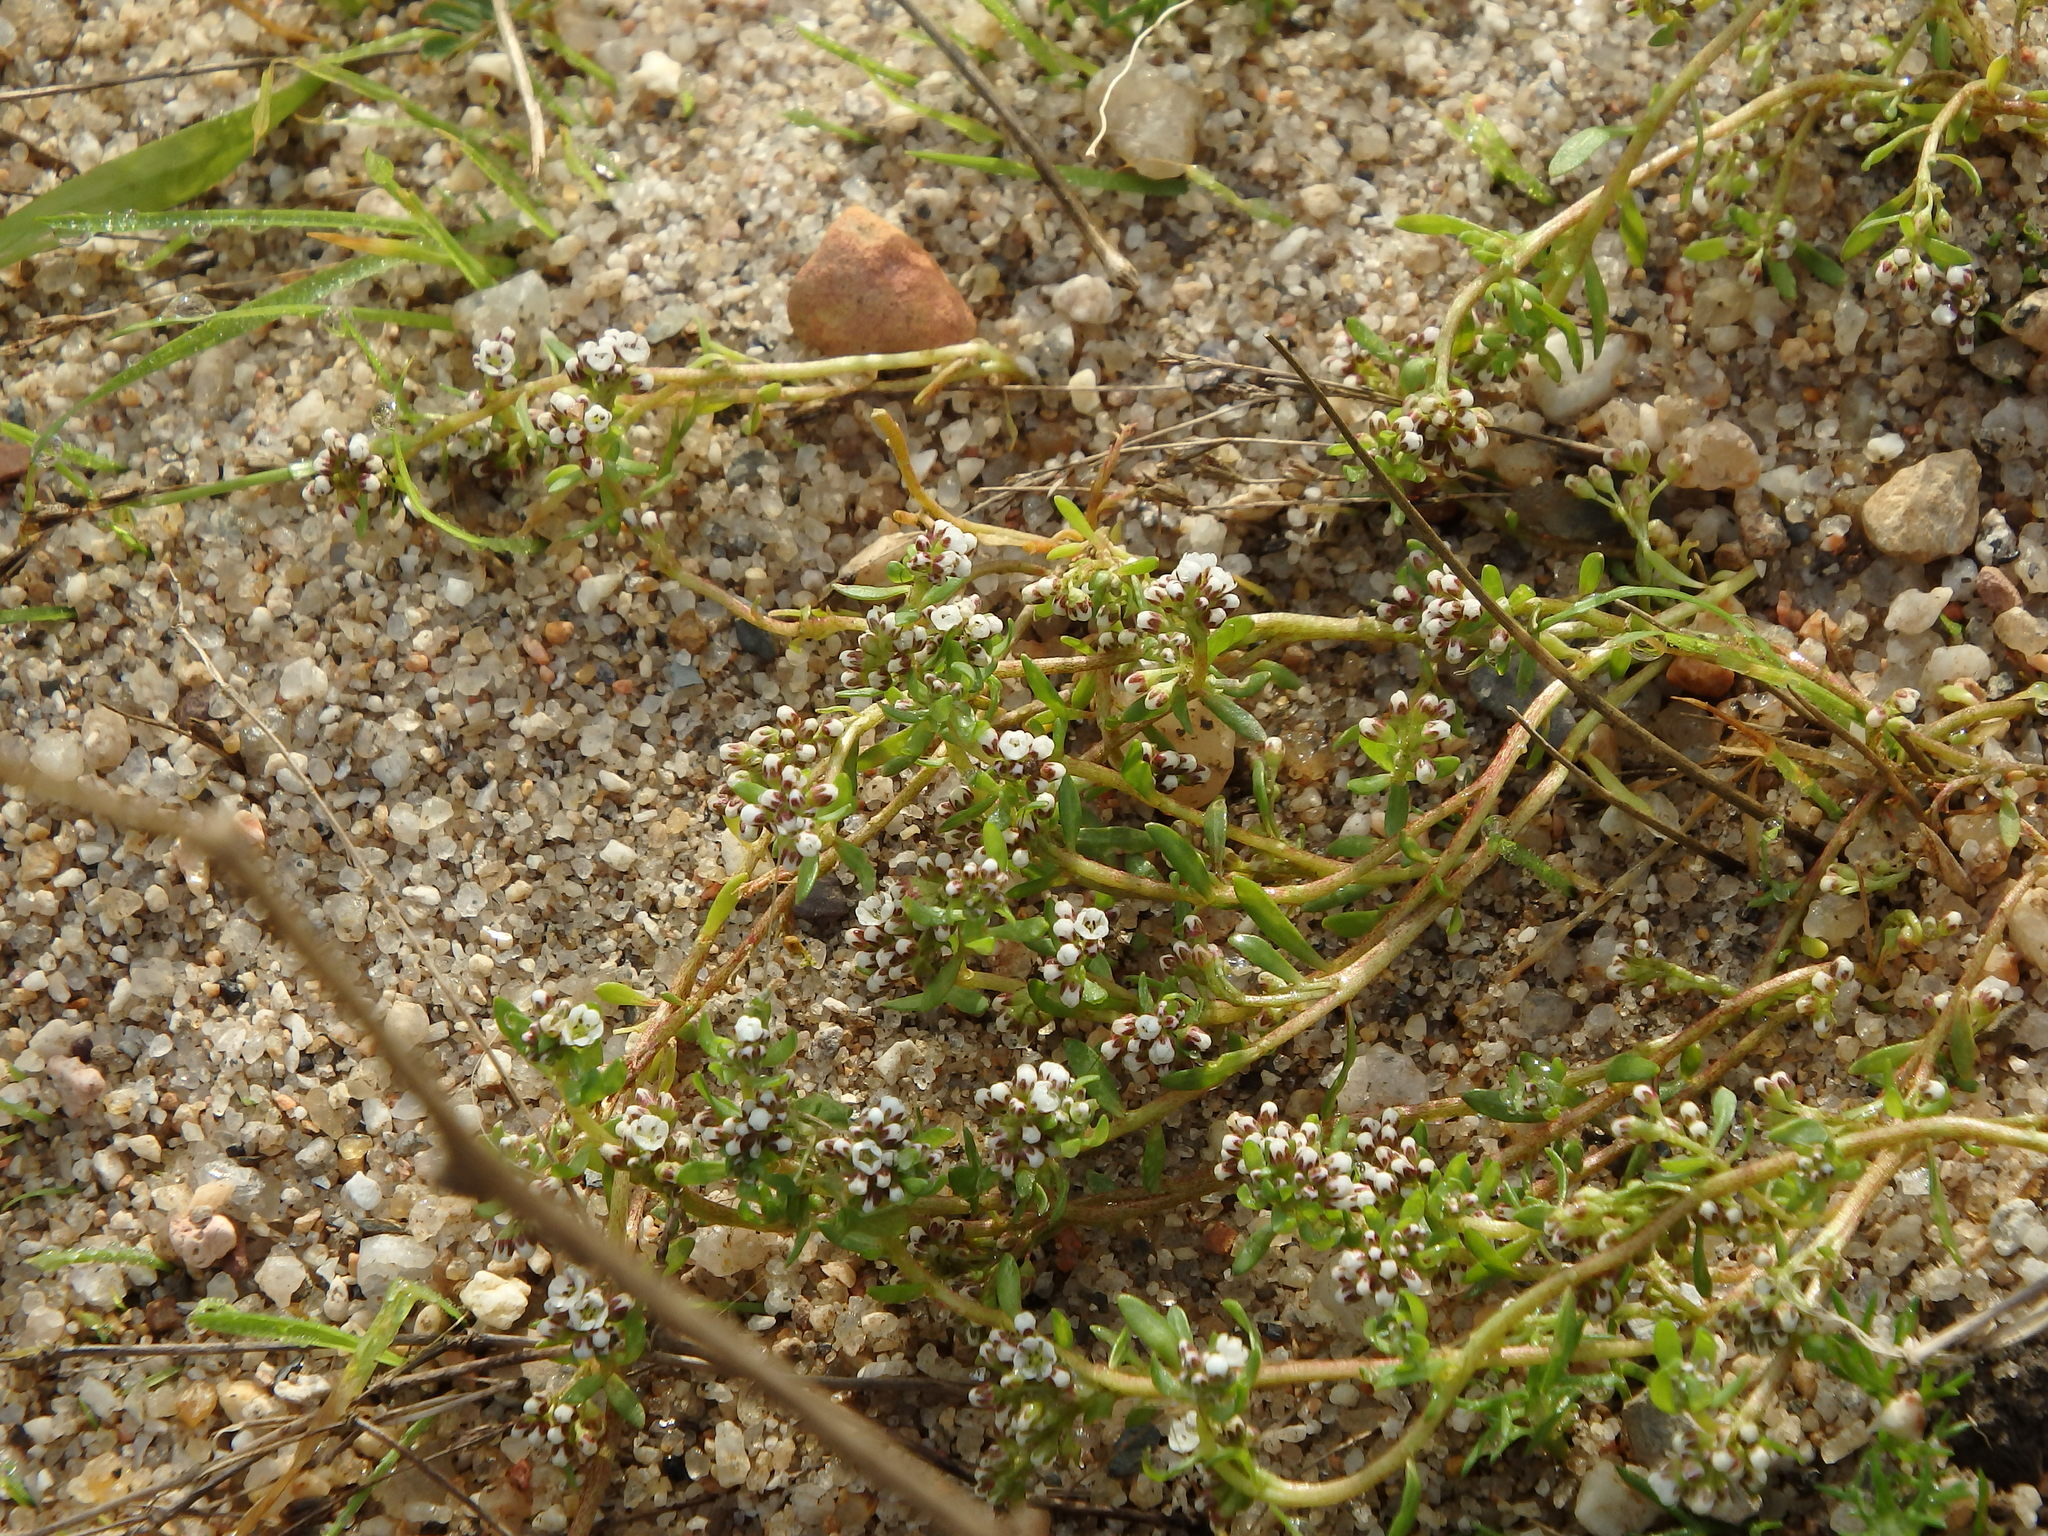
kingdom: Plantae
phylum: Tracheophyta
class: Magnoliopsida
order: Caryophyllales
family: Caryophyllaceae
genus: Corrigiola
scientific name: Corrigiola litoralis
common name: Strapwort
